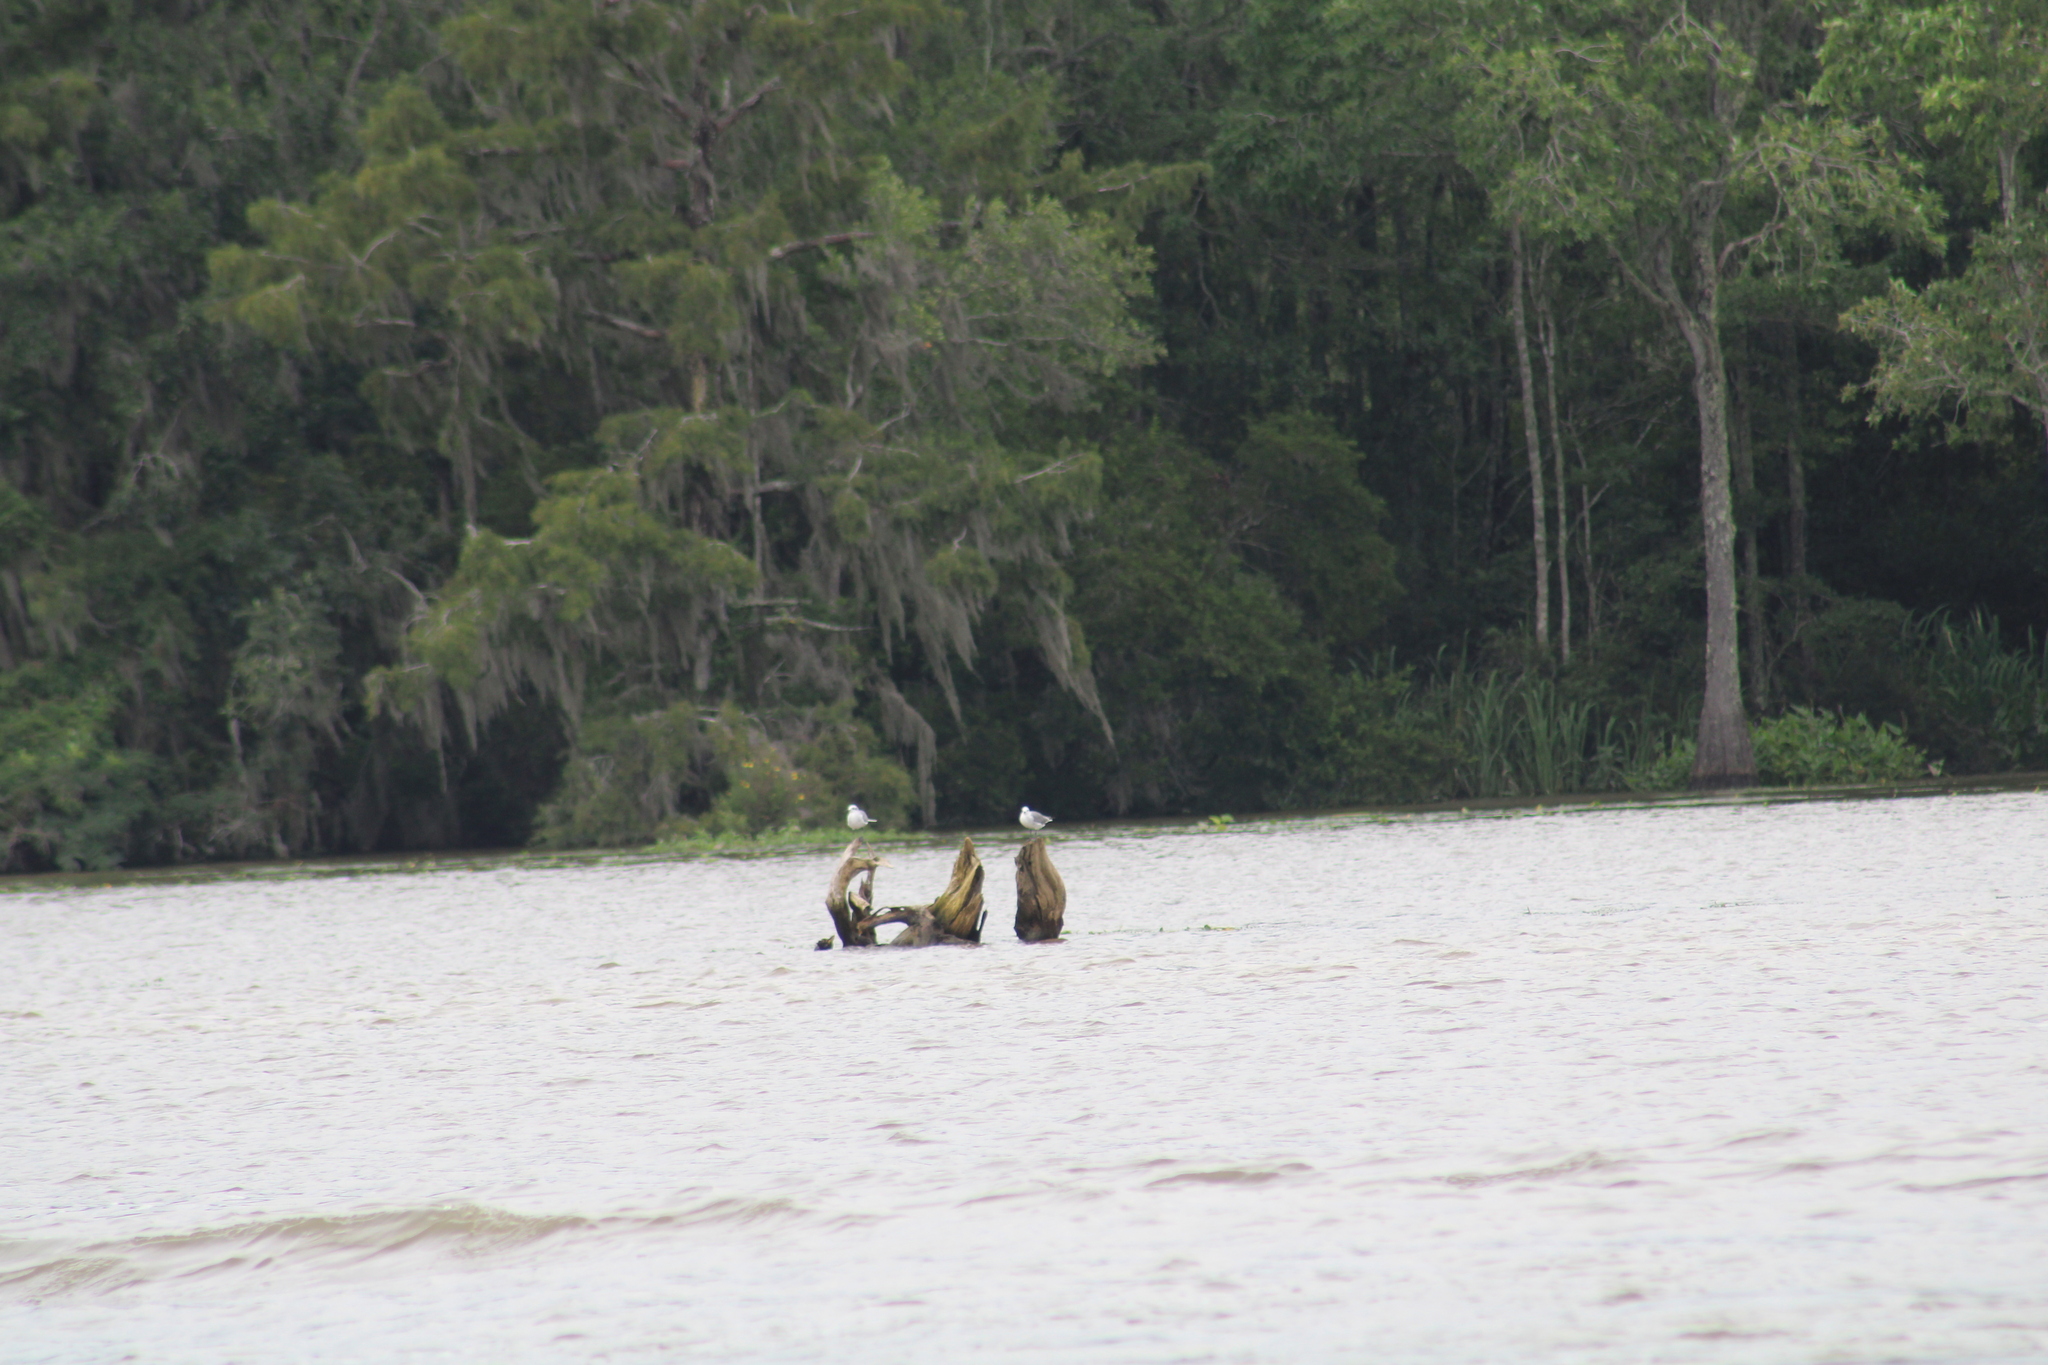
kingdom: Animalia
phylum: Chordata
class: Aves
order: Charadriiformes
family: Laridae
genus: Leucophaeus
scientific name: Leucophaeus atricilla
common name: Laughing gull
